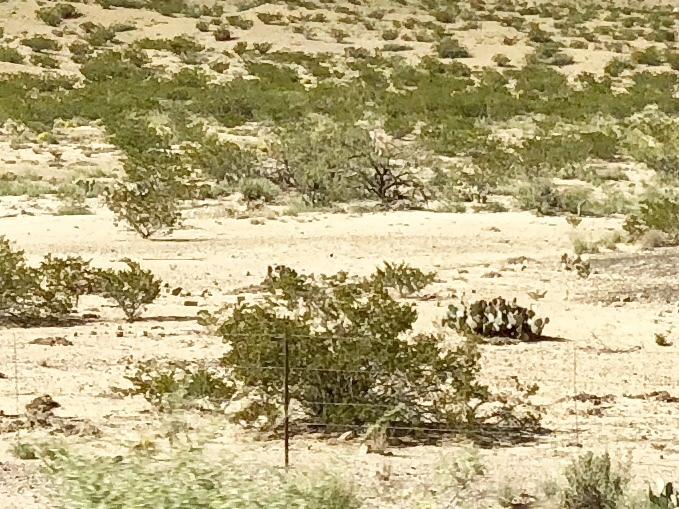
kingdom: Plantae
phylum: Tracheophyta
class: Magnoliopsida
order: Zygophyllales
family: Zygophyllaceae
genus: Larrea
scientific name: Larrea tridentata
